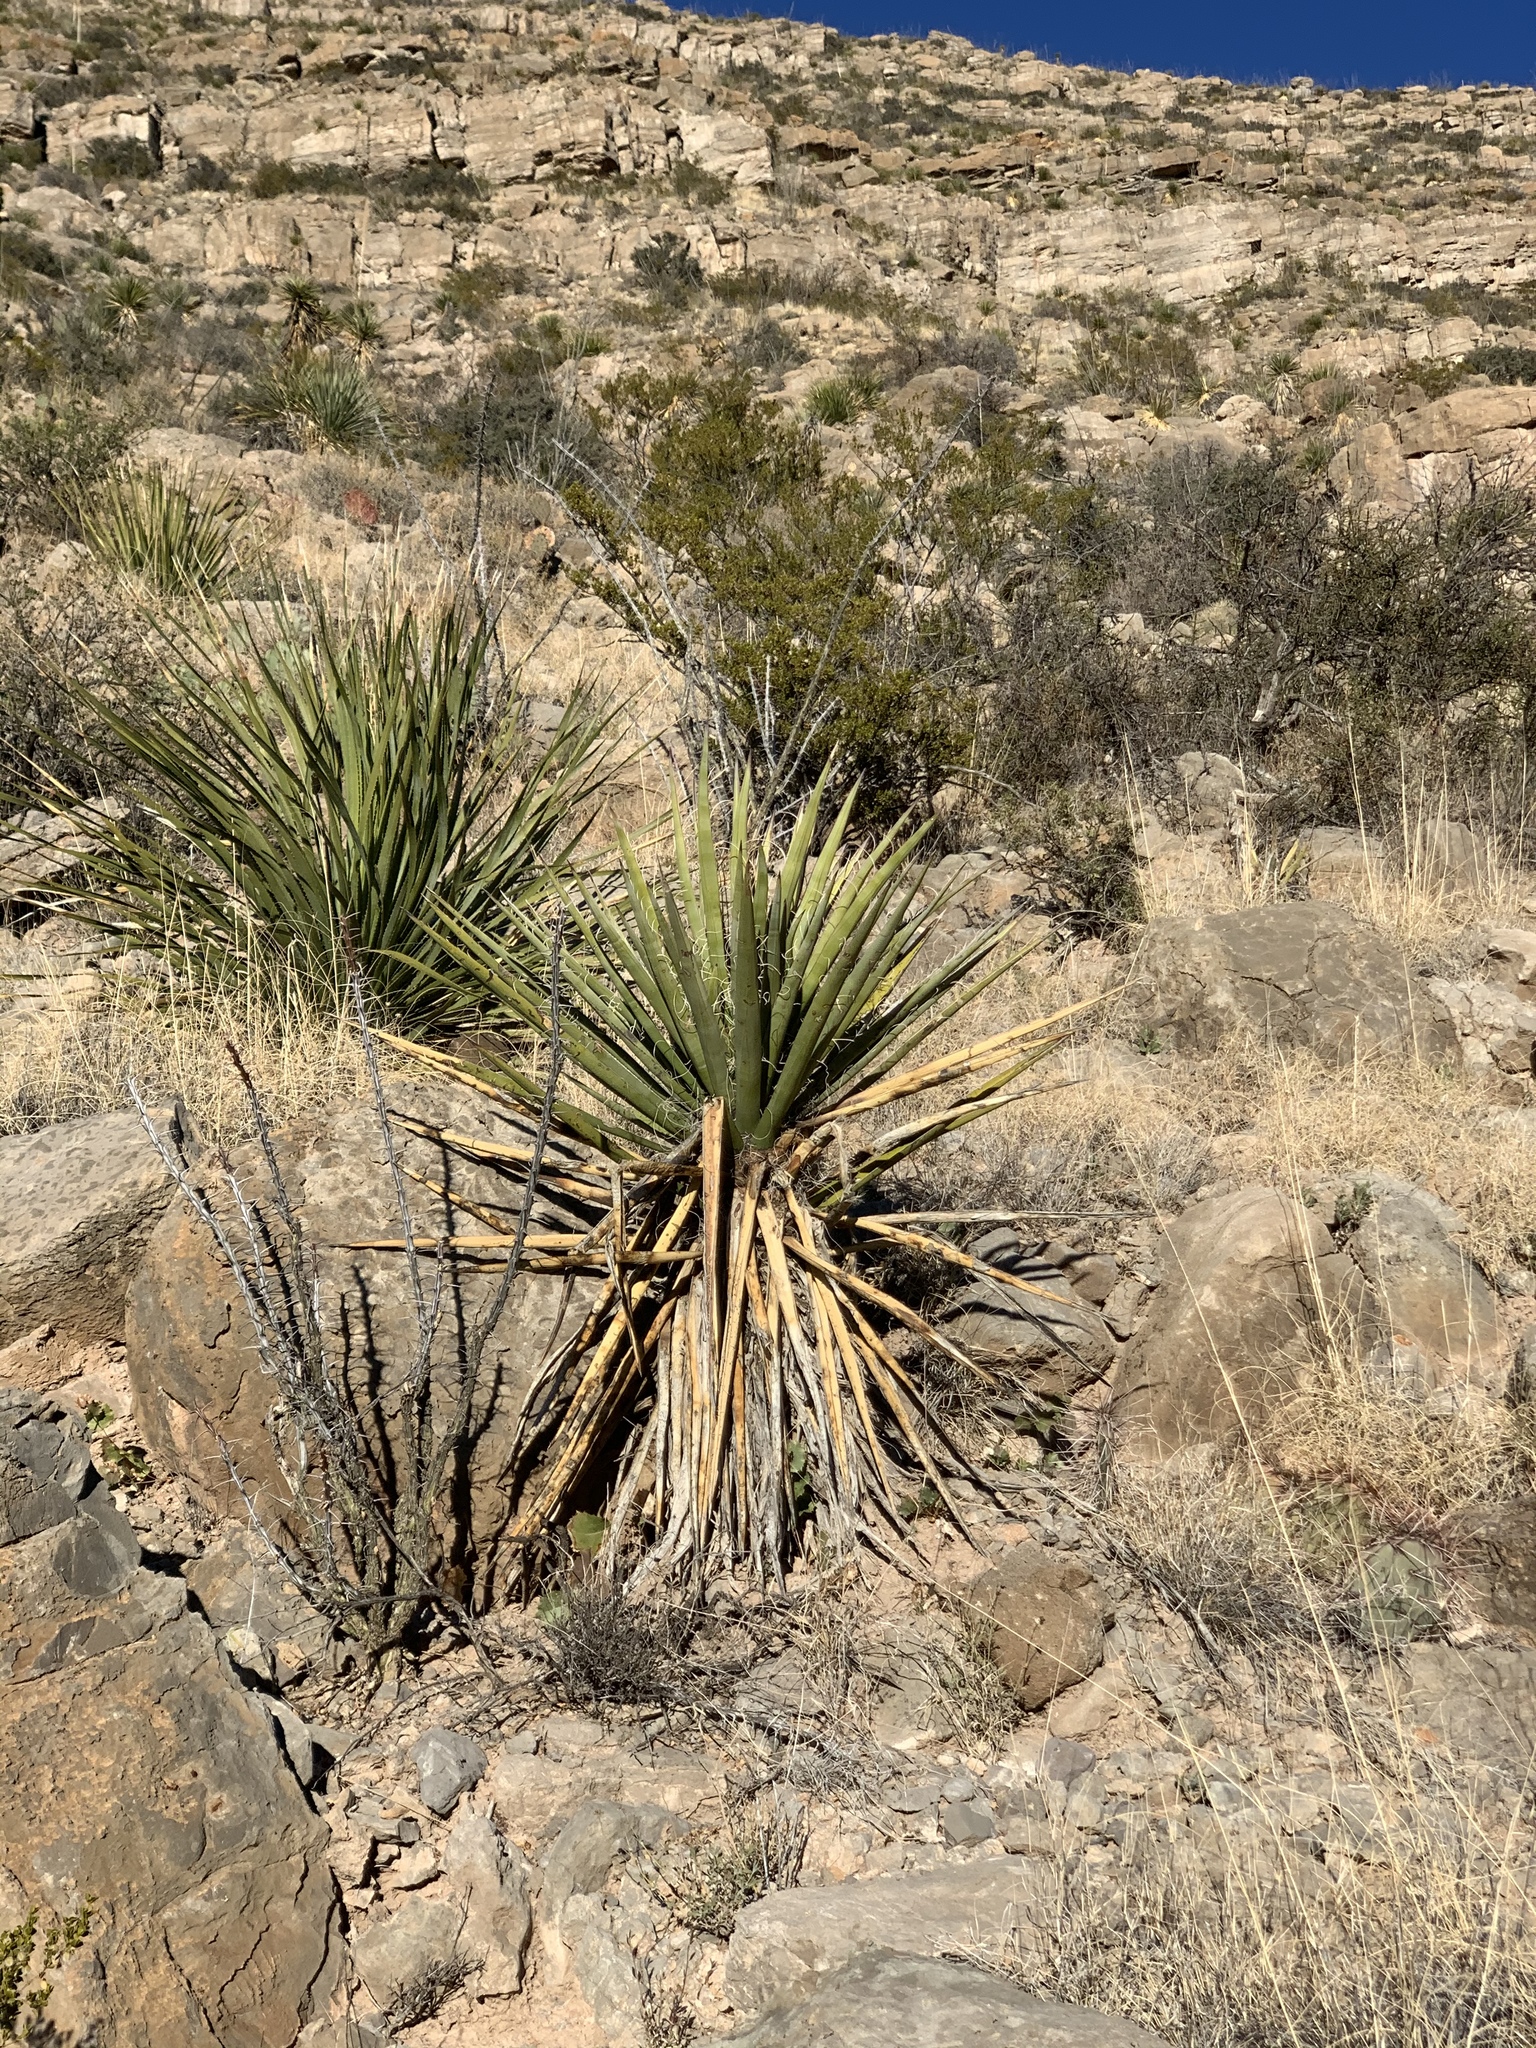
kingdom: Plantae
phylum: Tracheophyta
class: Liliopsida
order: Asparagales
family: Asparagaceae
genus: Yucca
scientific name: Yucca treculiana
